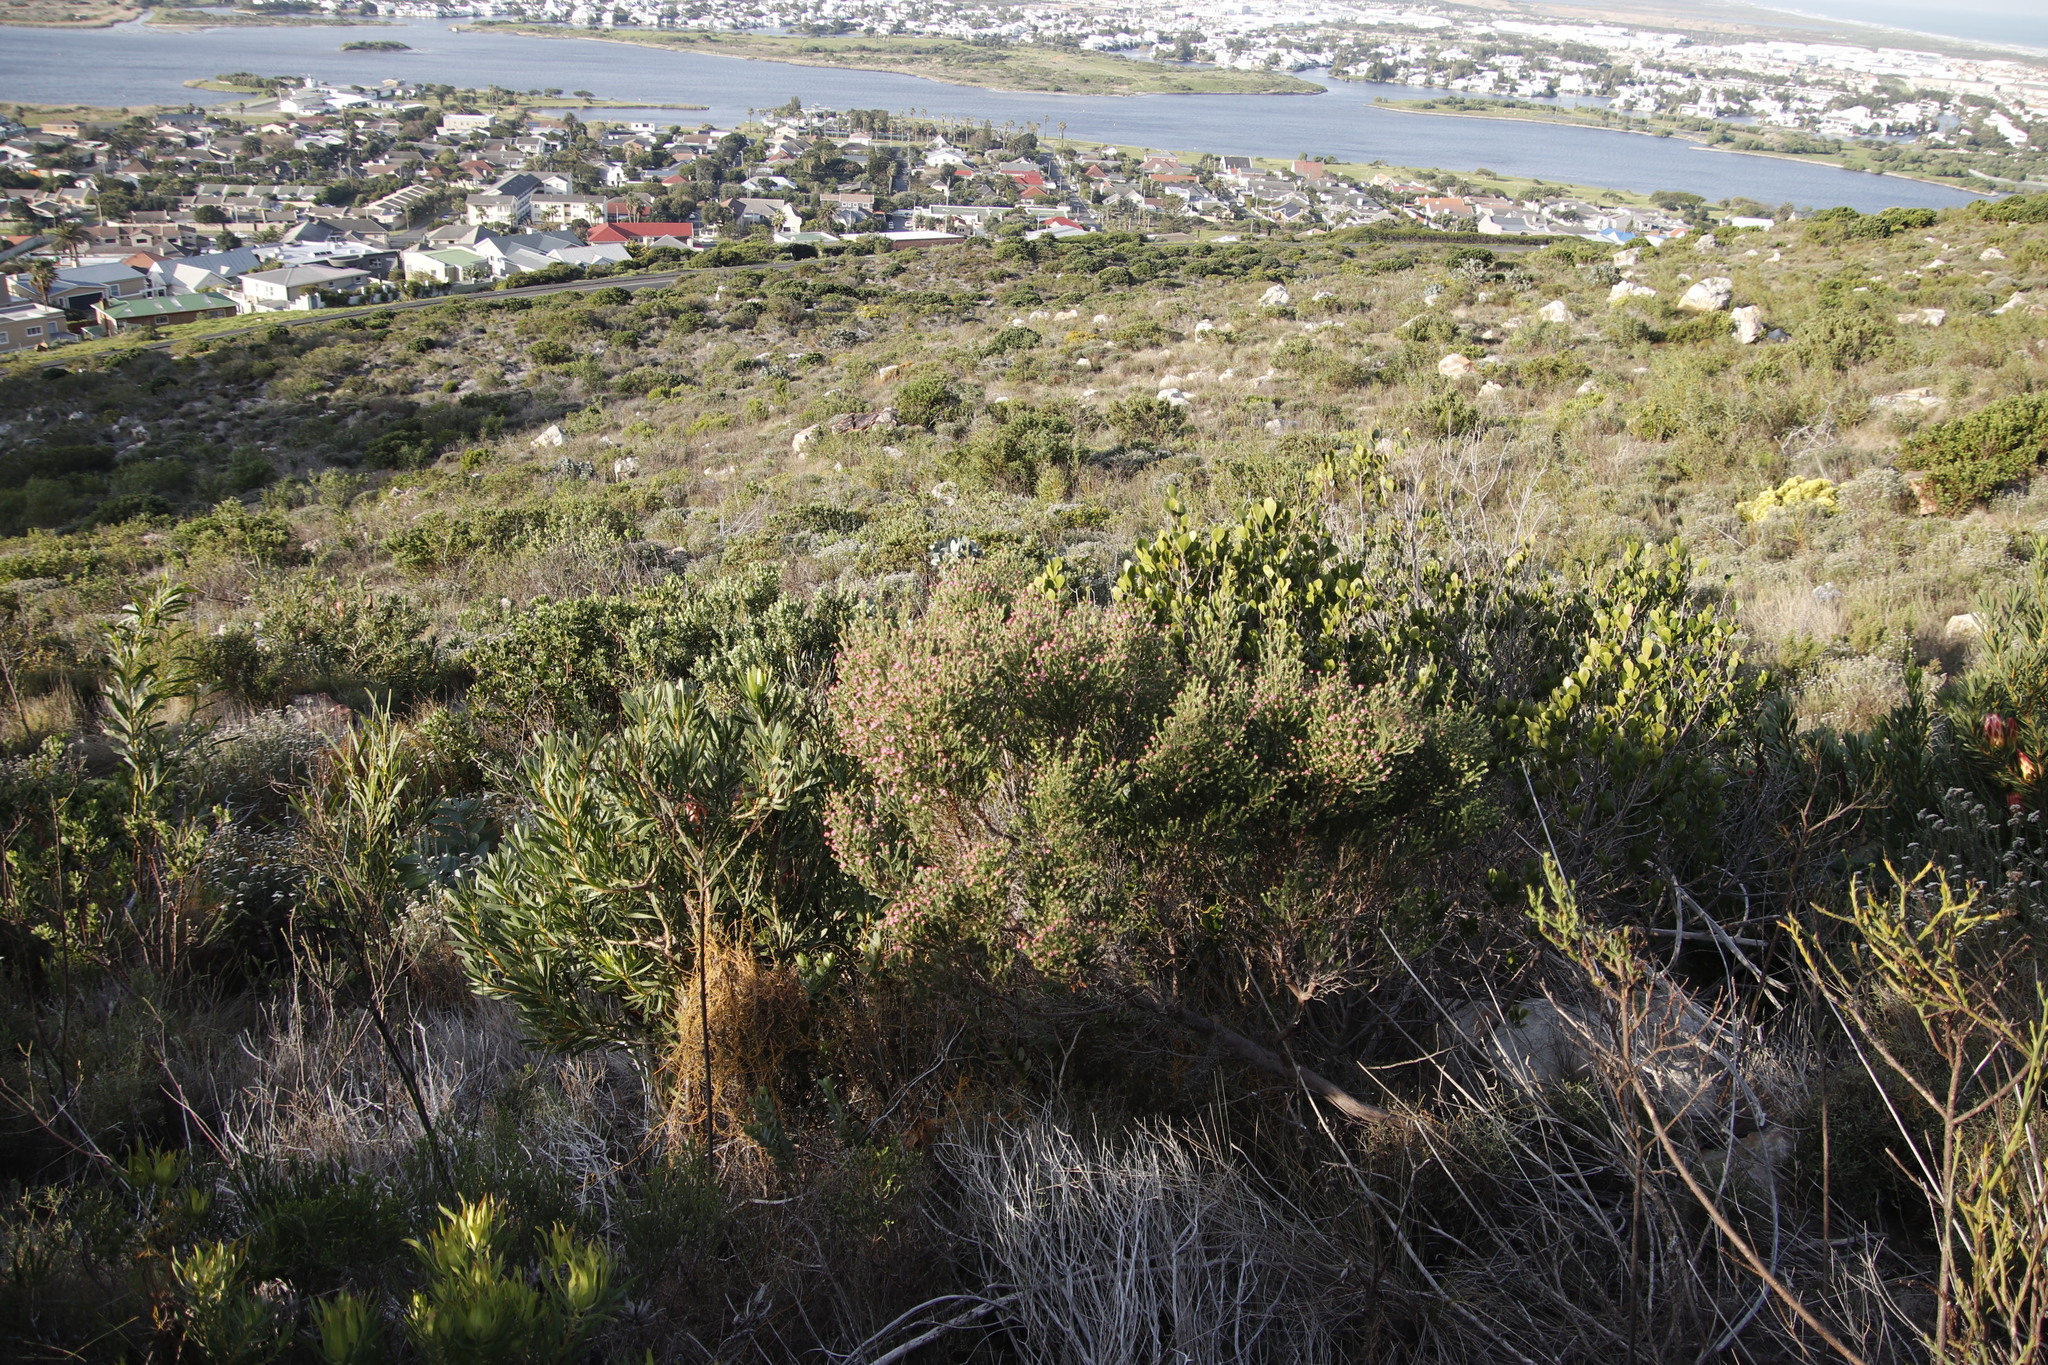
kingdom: Plantae
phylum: Tracheophyta
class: Magnoliopsida
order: Ericales
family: Ericaceae
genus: Erica
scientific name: Erica baccans
